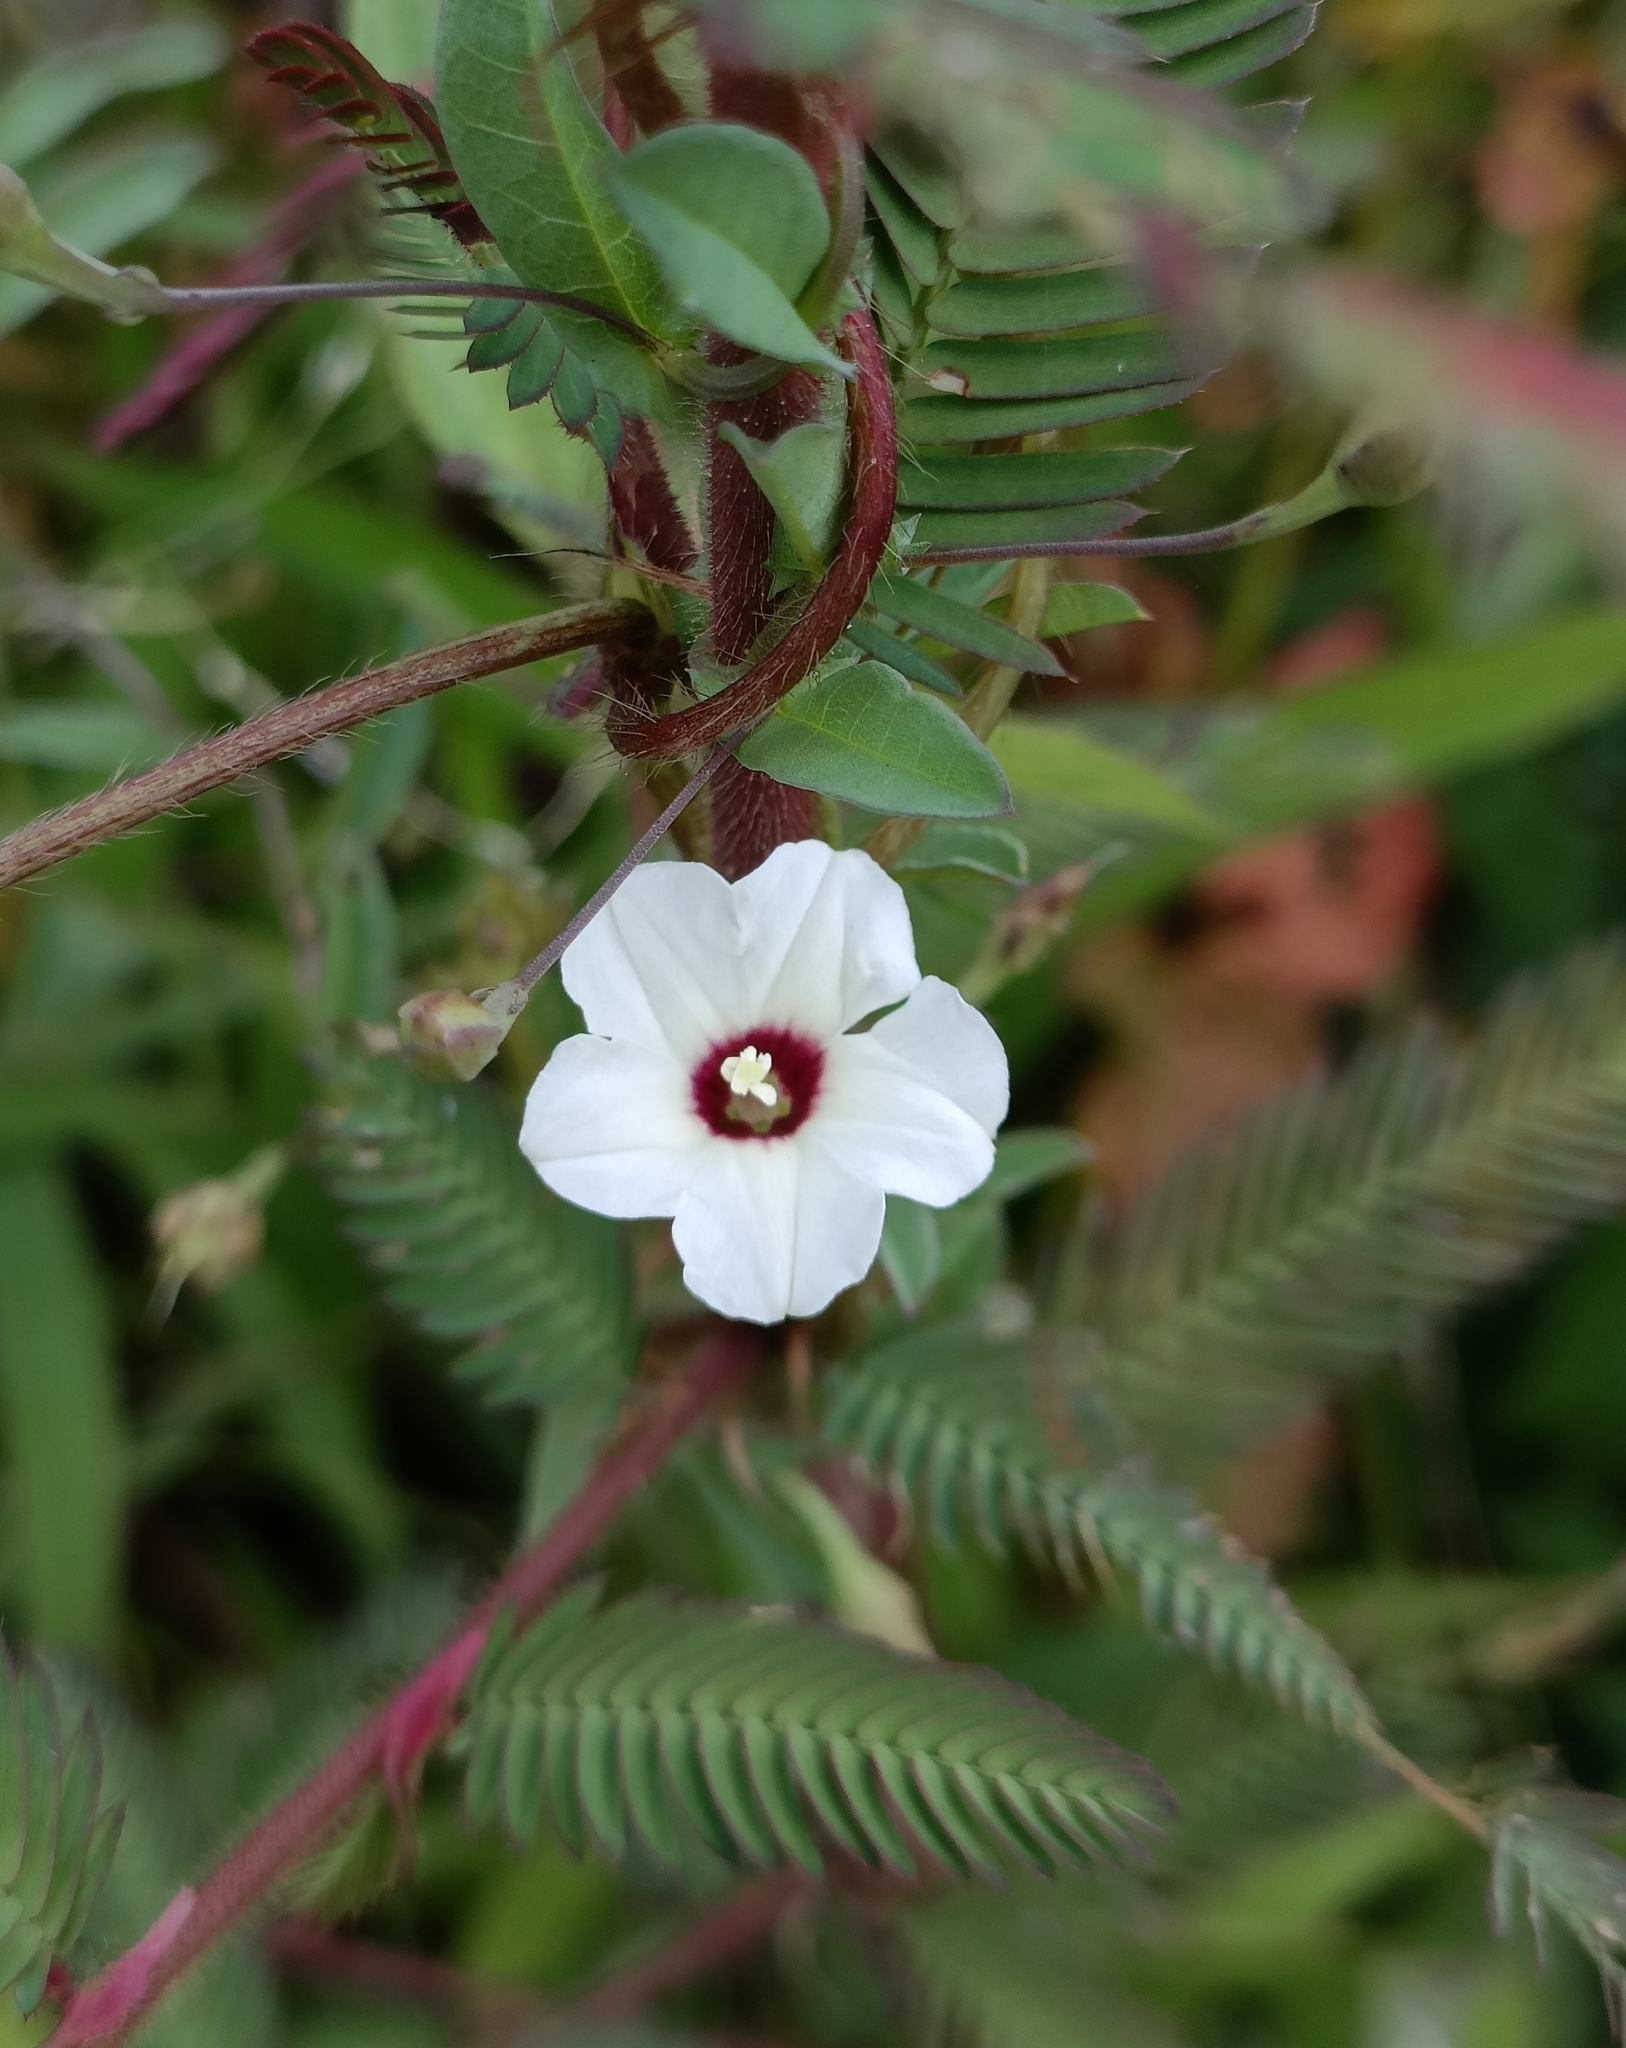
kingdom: Plantae
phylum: Tracheophyta
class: Magnoliopsida
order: Solanales
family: Convolvulaceae
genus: Xenostegia
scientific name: Xenostegia tridentata
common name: African morningvine
